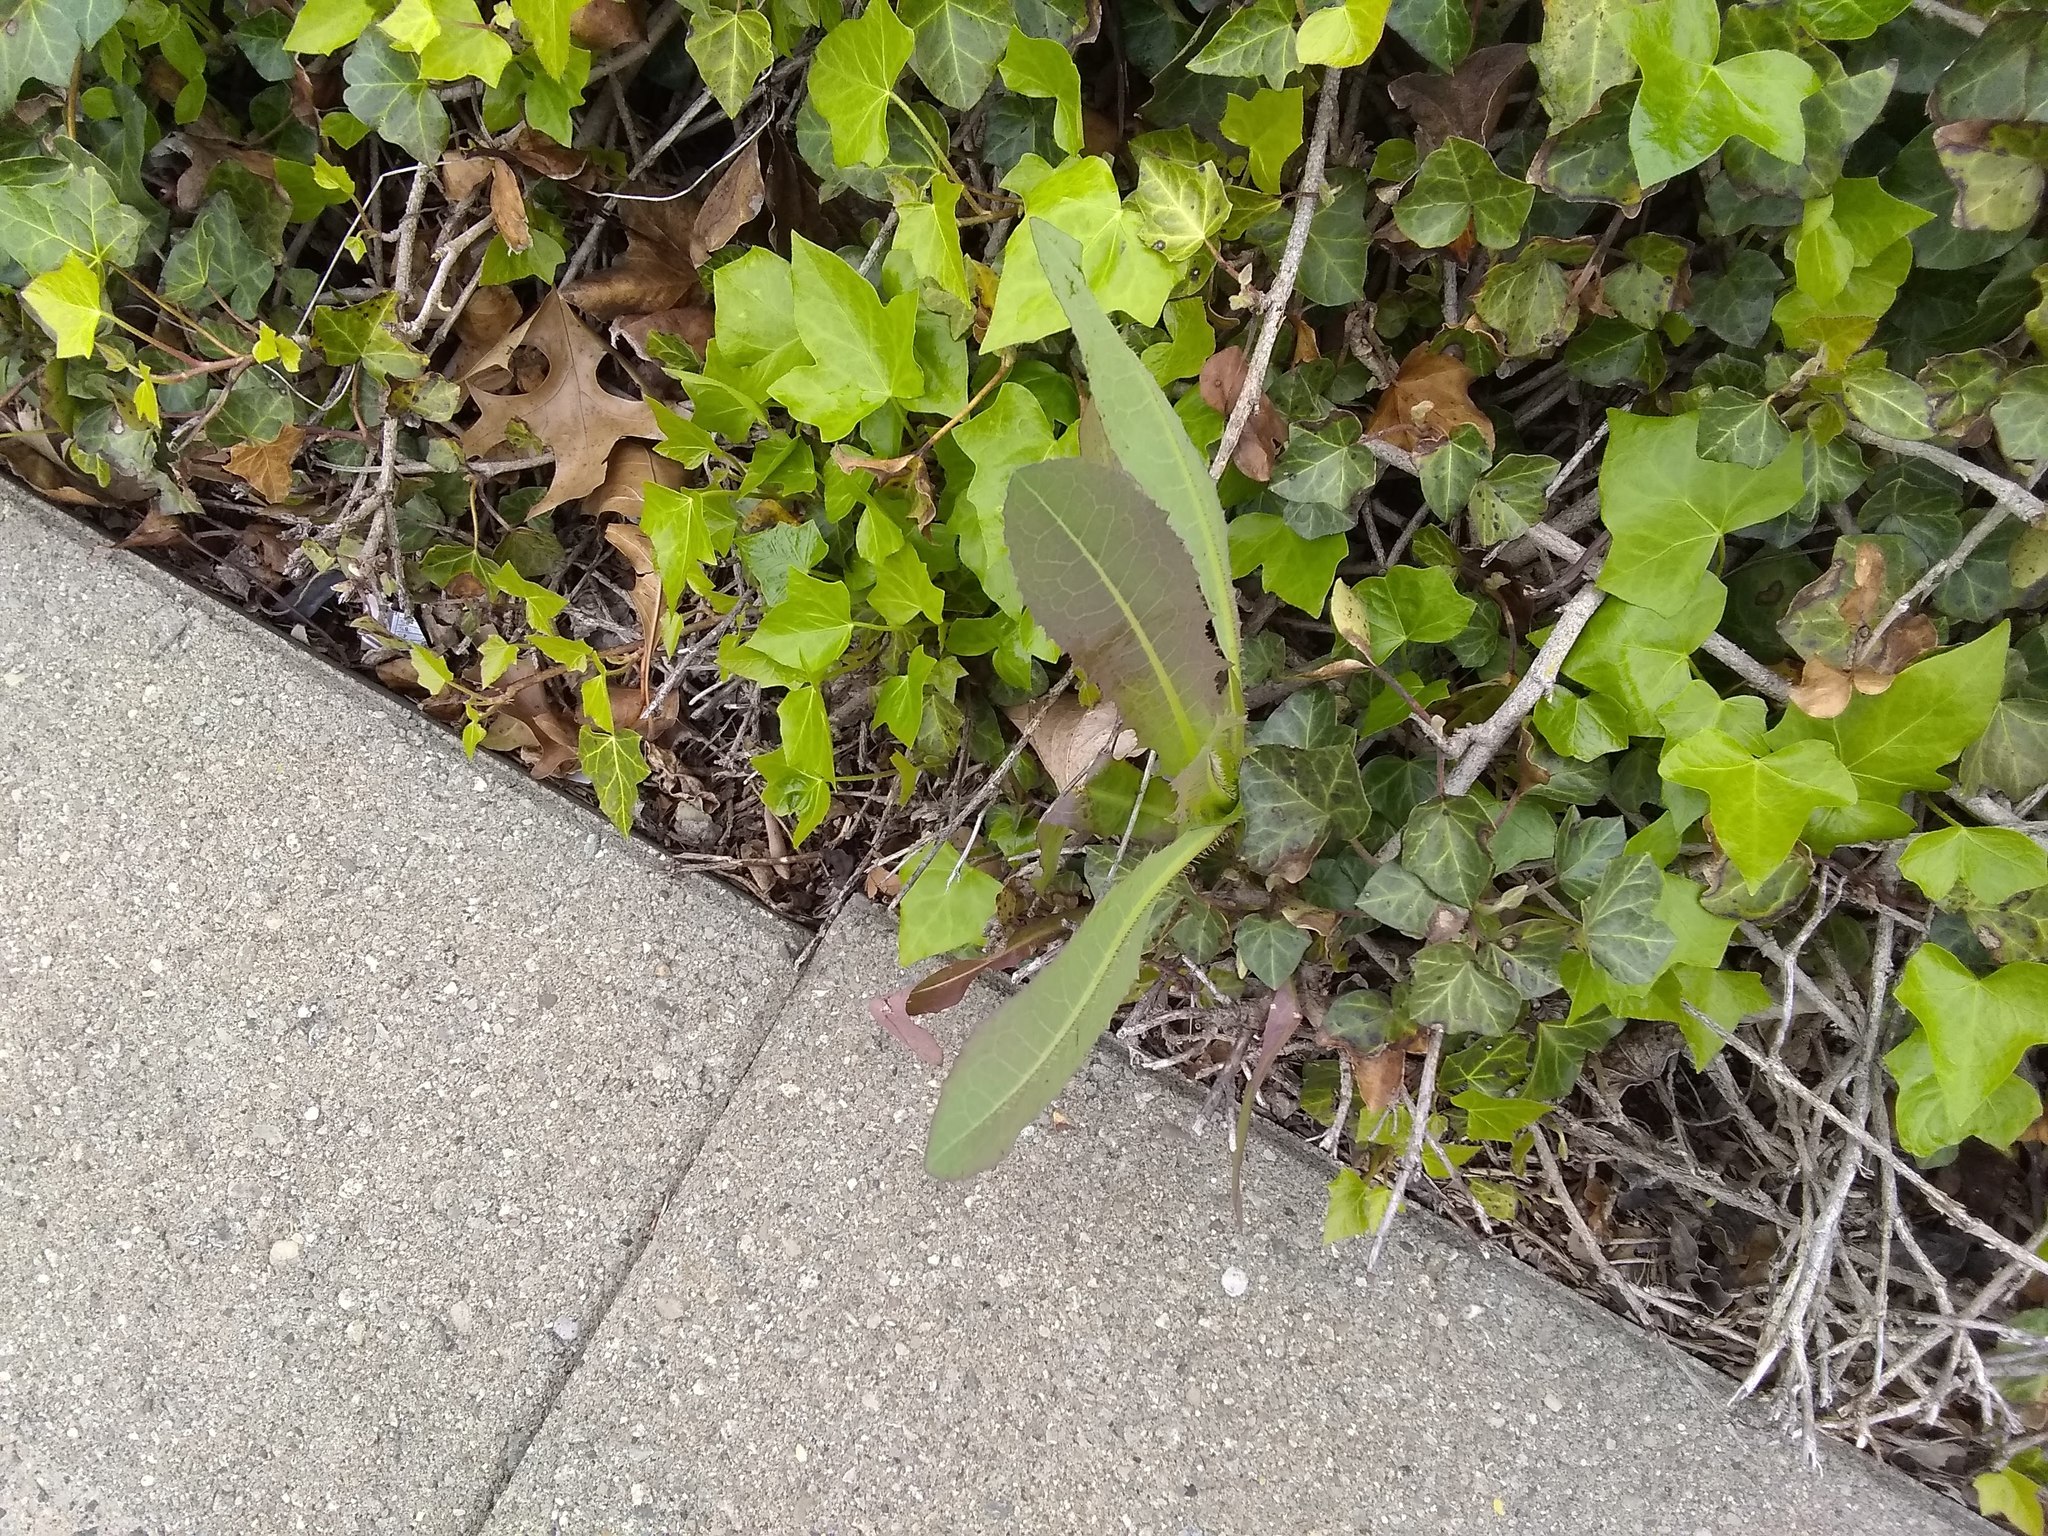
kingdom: Plantae
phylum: Tracheophyta
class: Magnoliopsida
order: Asterales
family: Asteraceae
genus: Lactuca
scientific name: Lactuca serriola
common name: Prickly lettuce
